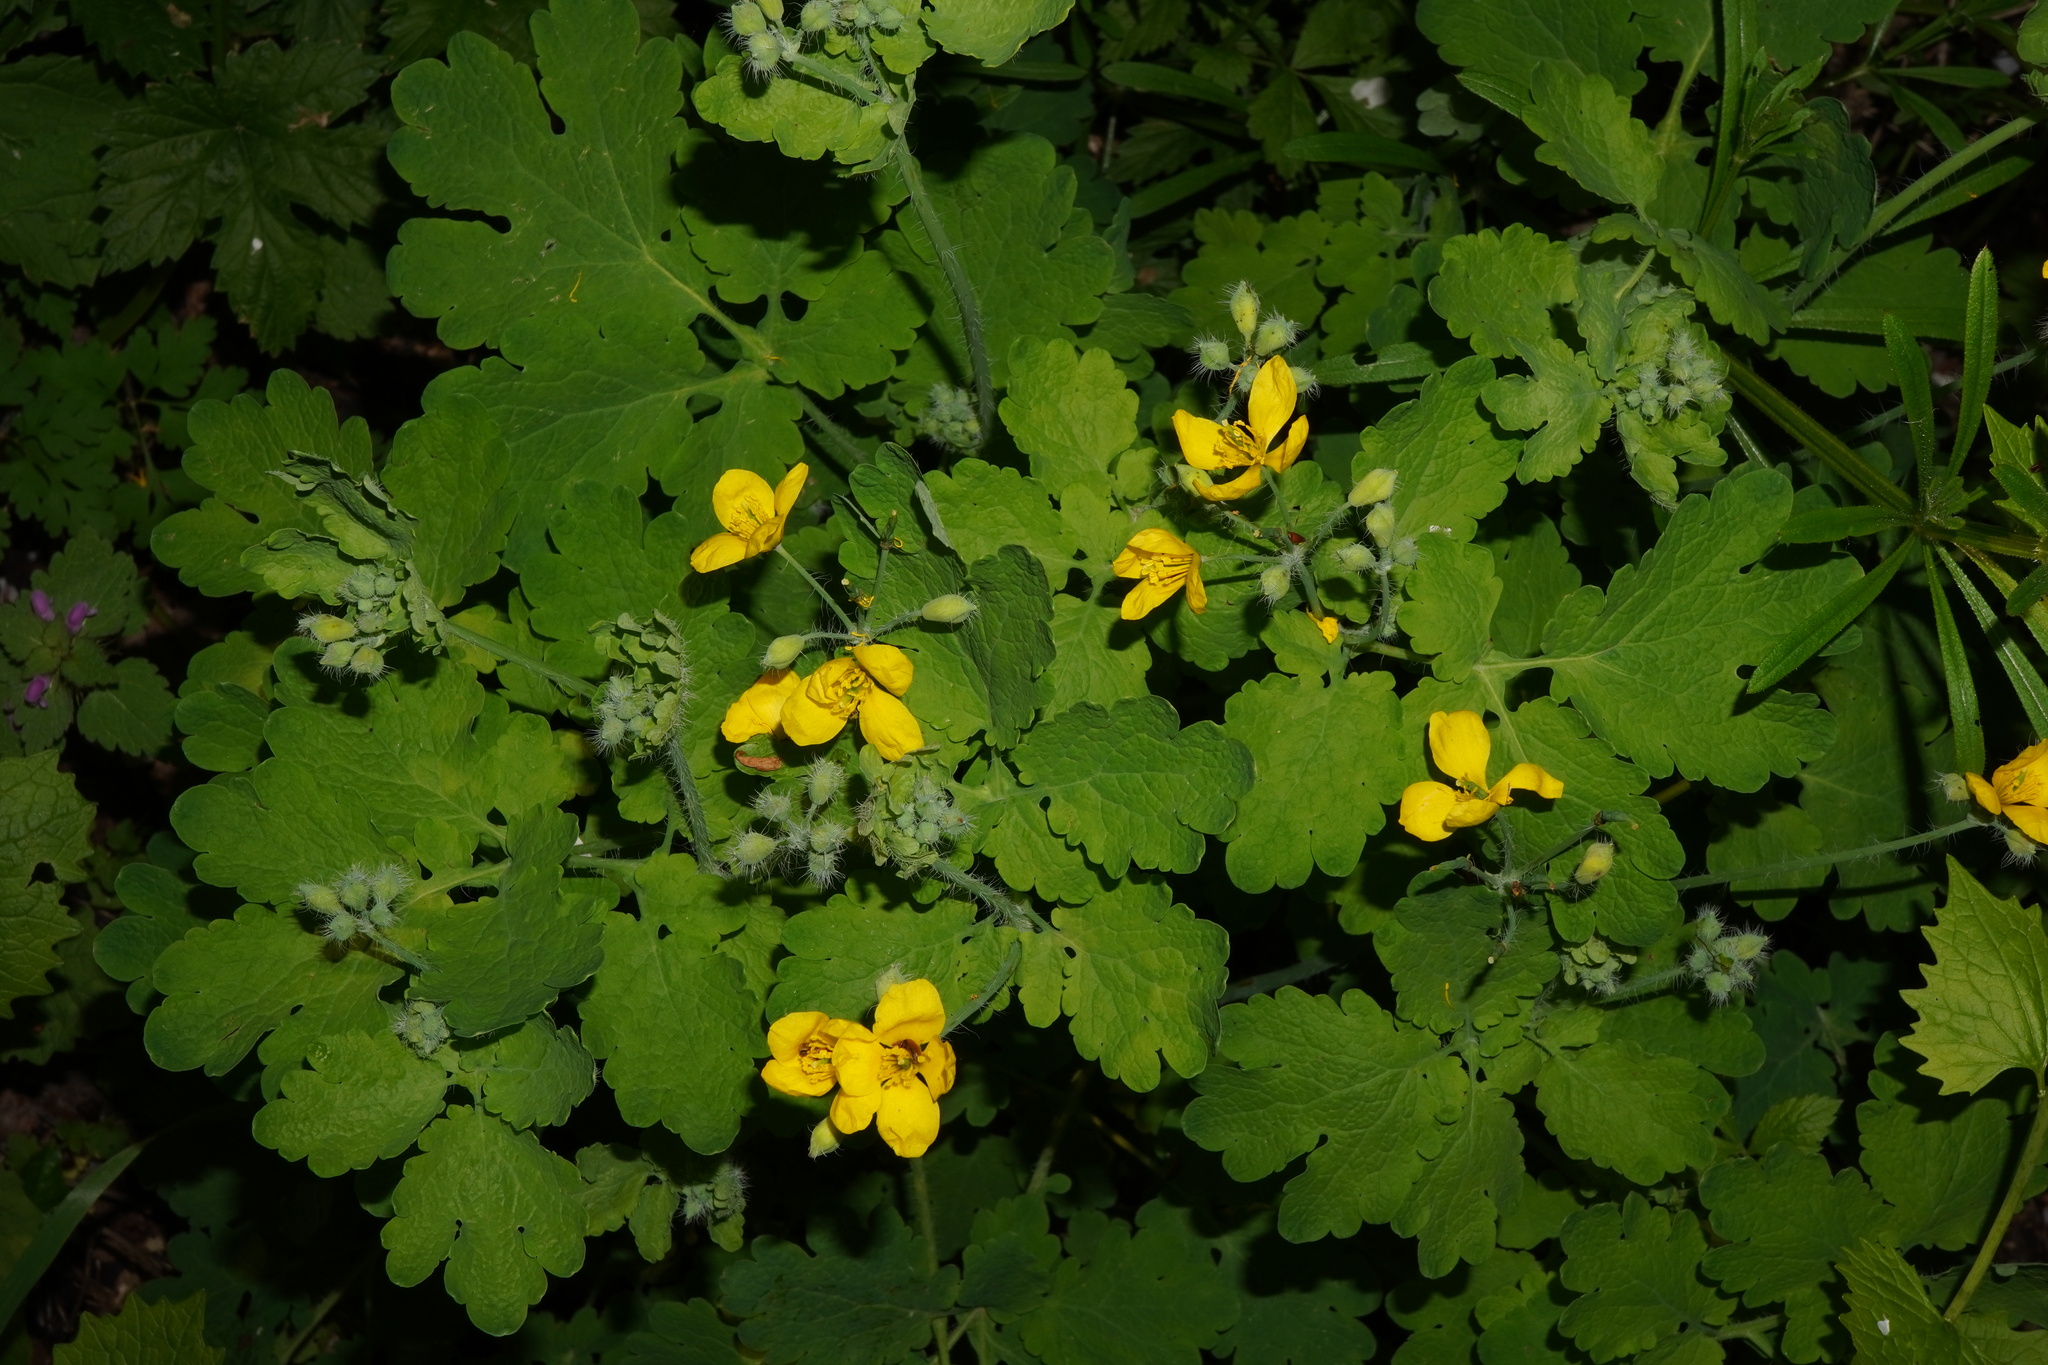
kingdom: Plantae
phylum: Tracheophyta
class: Magnoliopsida
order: Ranunculales
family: Papaveraceae
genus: Chelidonium
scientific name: Chelidonium majus
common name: Greater celandine
